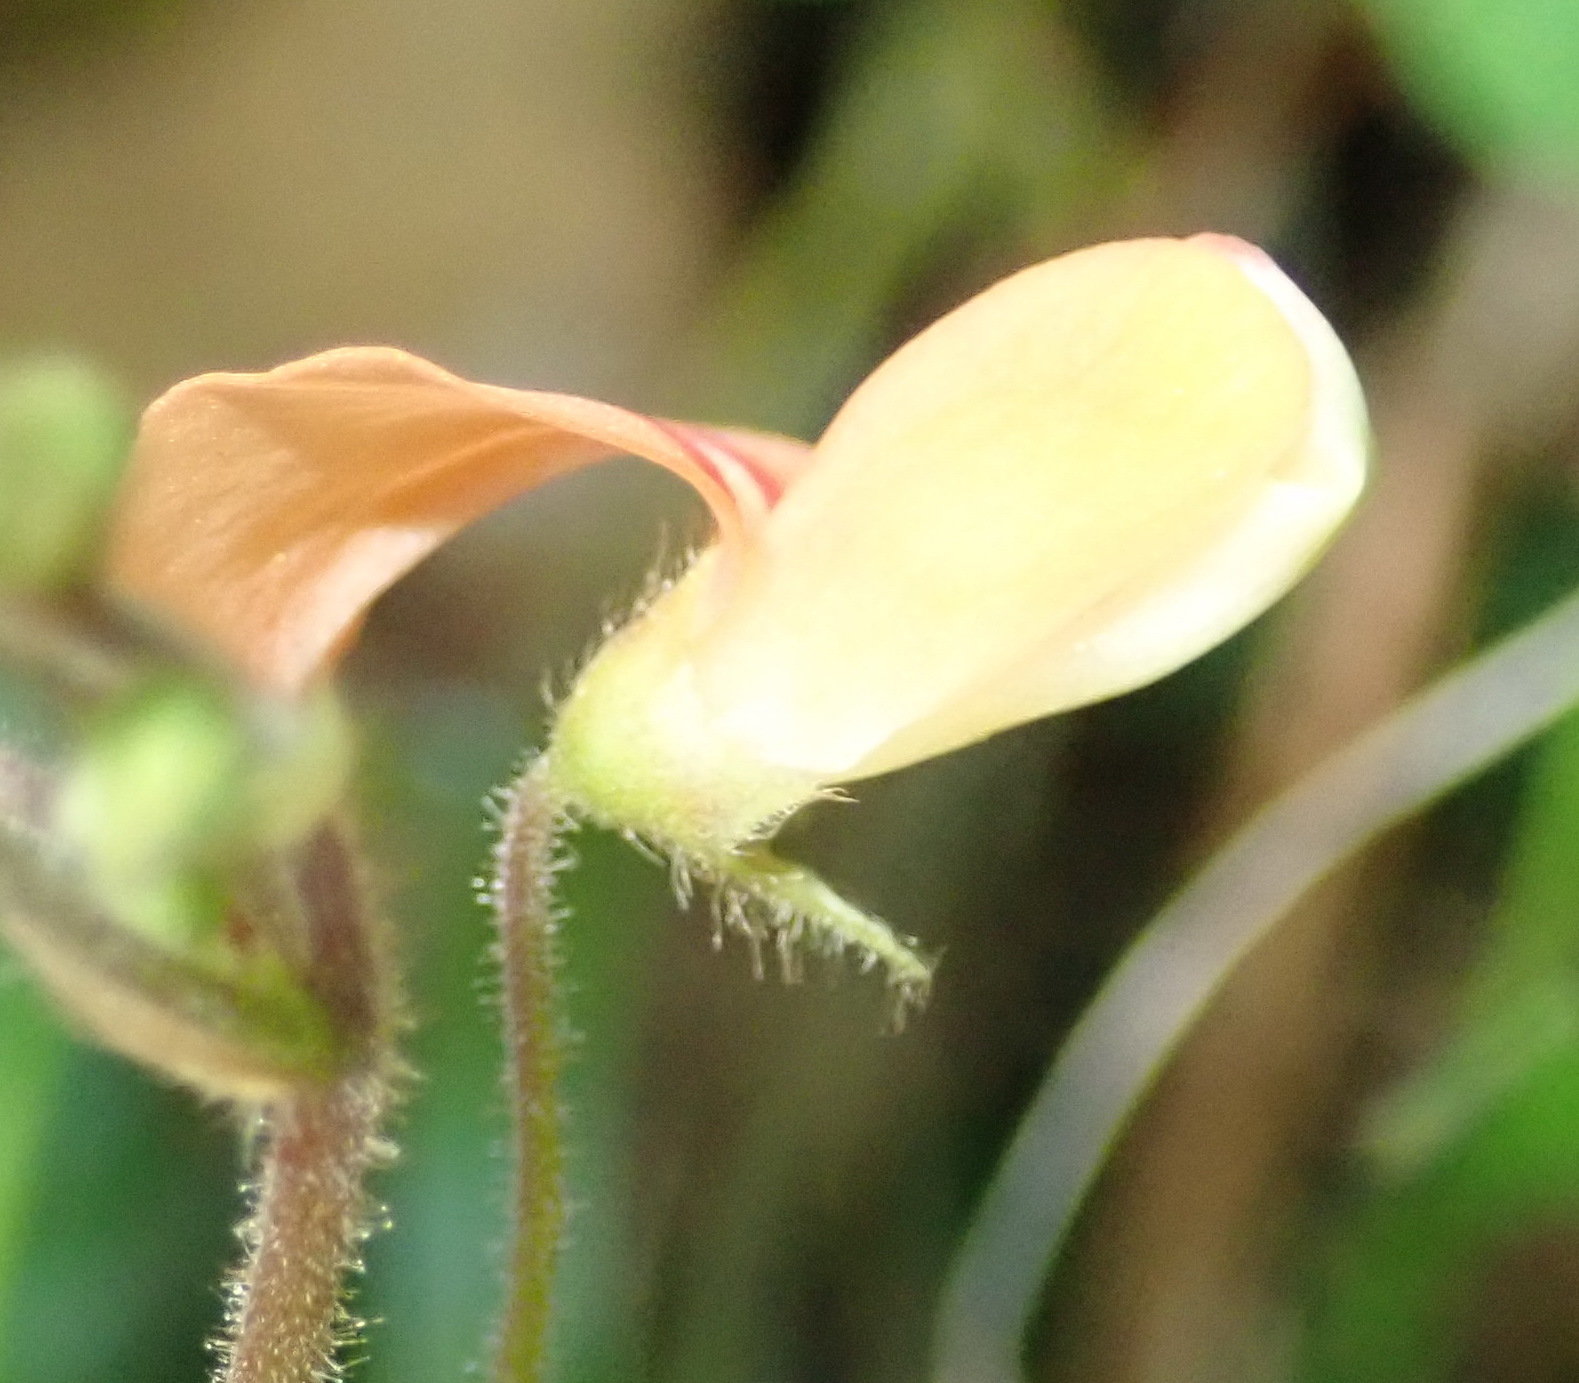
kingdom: Plantae
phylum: Tracheophyta
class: Magnoliopsida
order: Fabales
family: Fabaceae
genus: Hylodesmum
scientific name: Hylodesmum repandum
